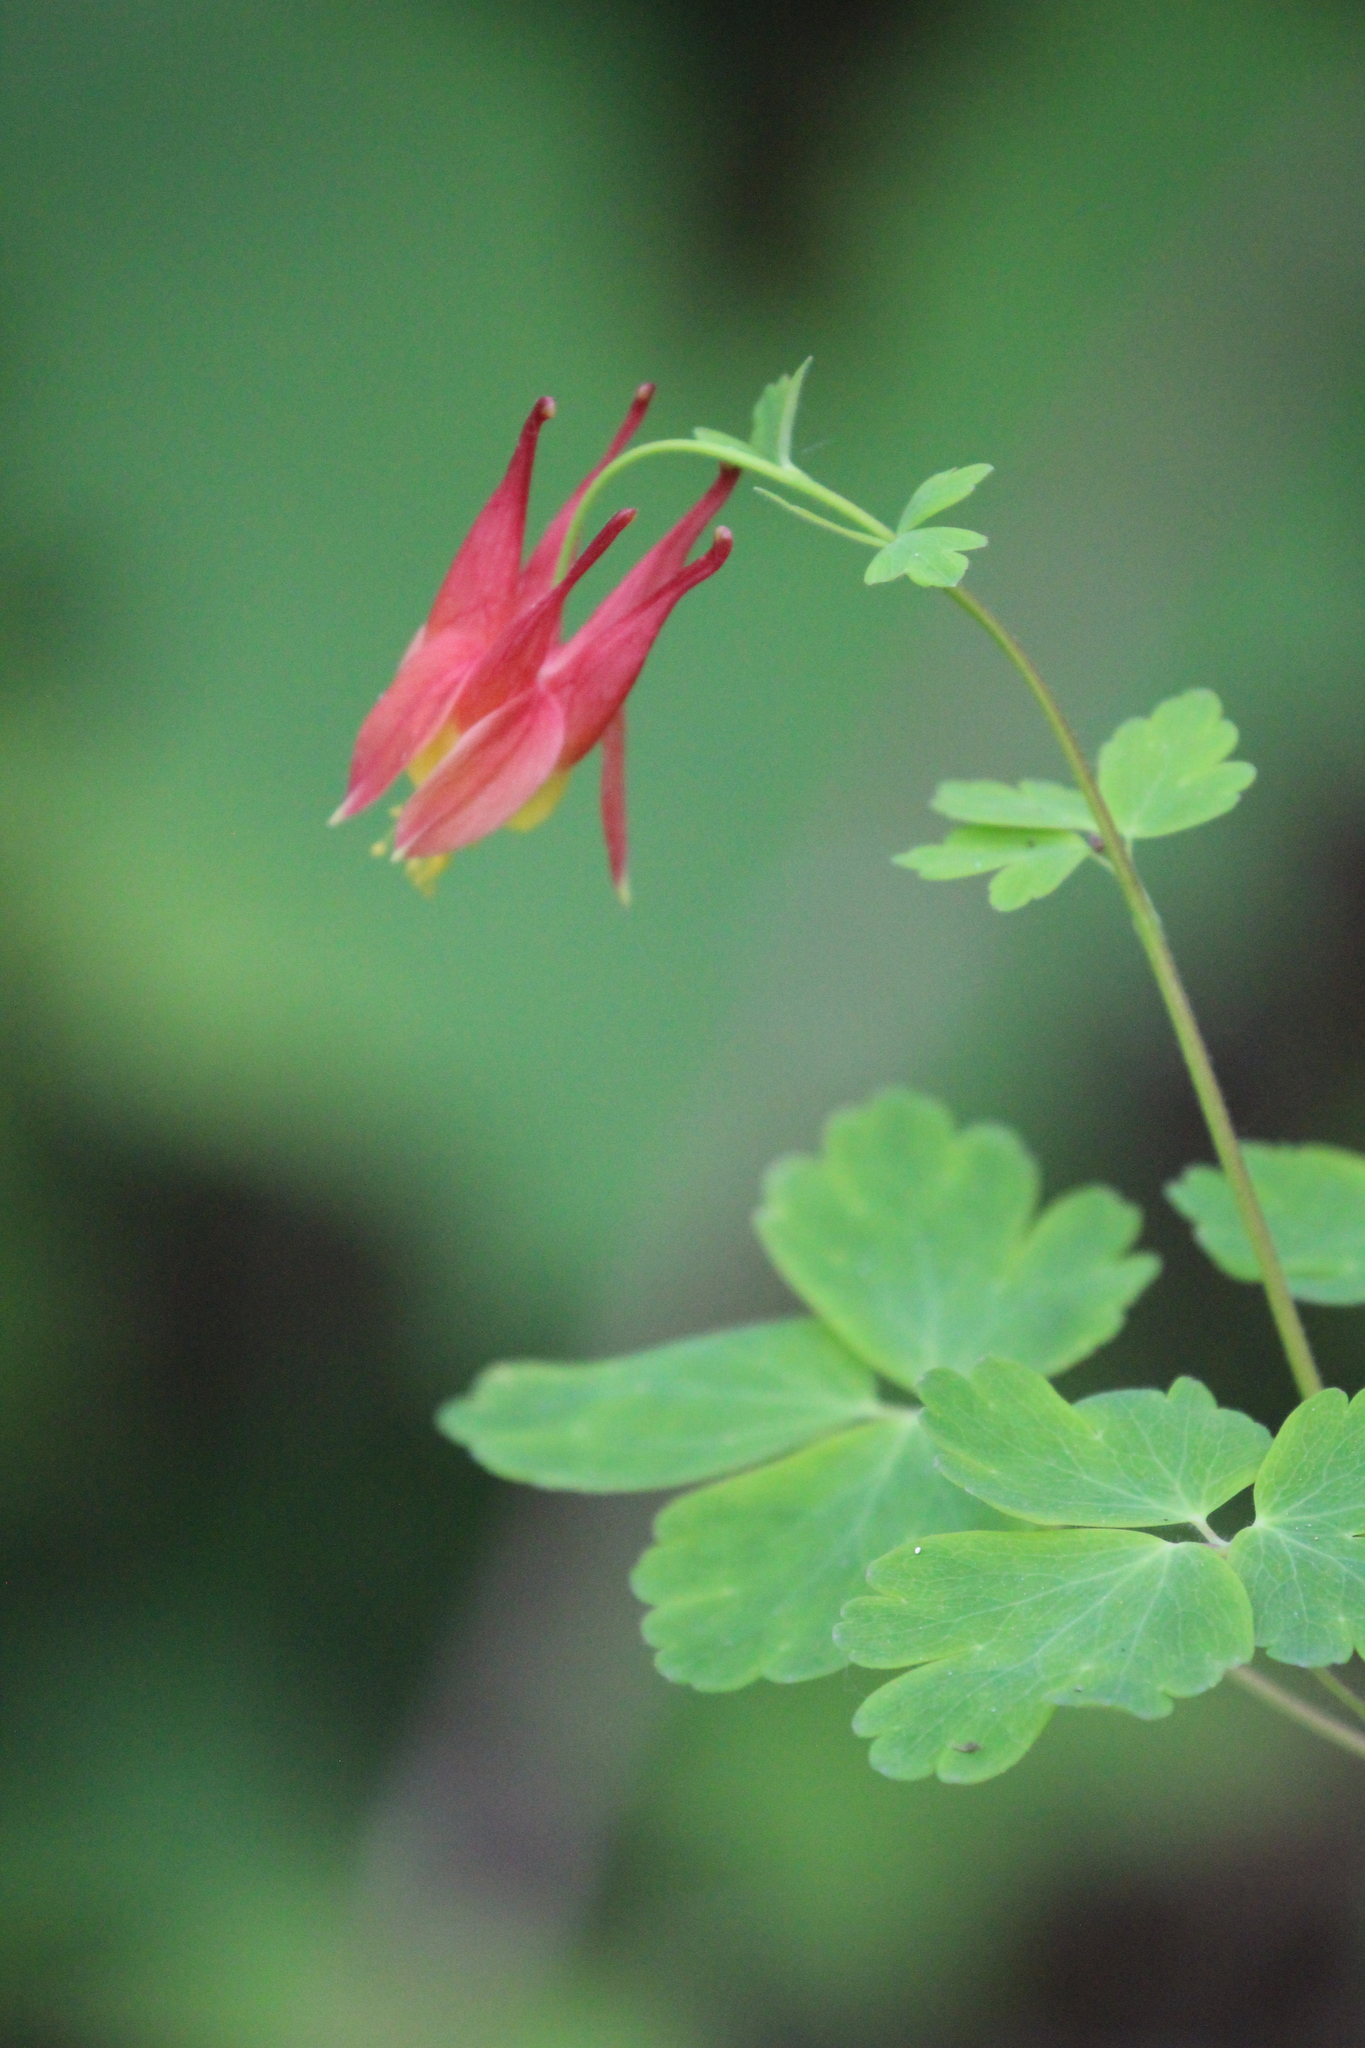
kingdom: Plantae
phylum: Tracheophyta
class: Magnoliopsida
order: Ranunculales
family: Ranunculaceae
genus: Aquilegia
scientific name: Aquilegia canadensis
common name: American columbine
